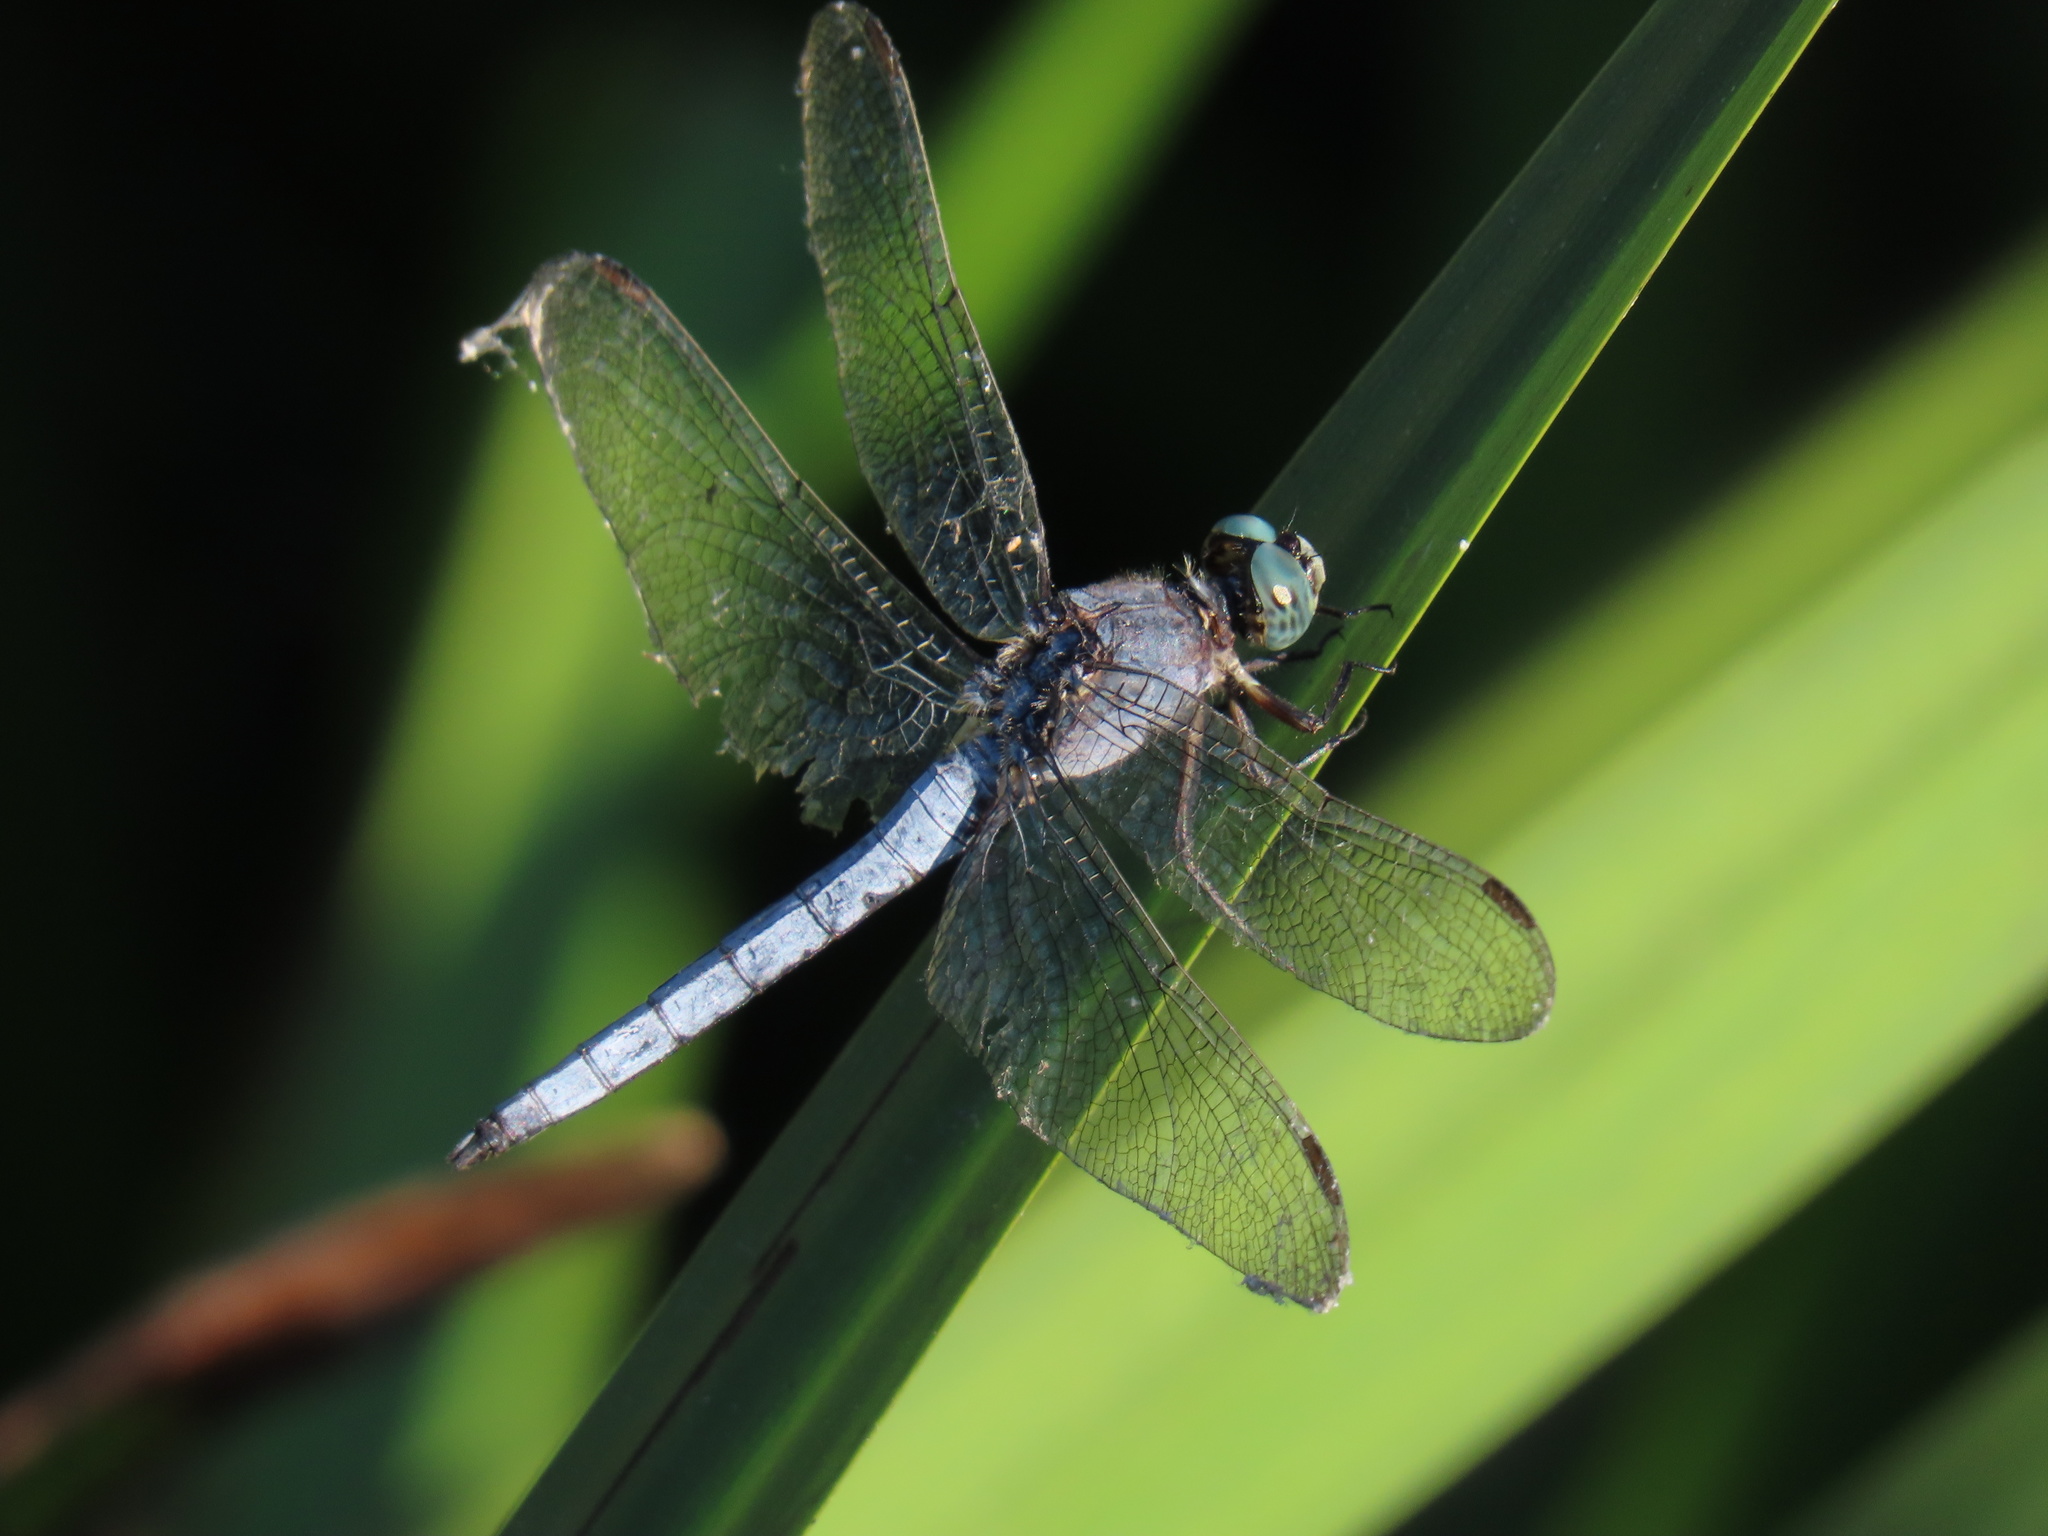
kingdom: Animalia
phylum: Arthropoda
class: Insecta
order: Odonata
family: Libellulidae
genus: Orthetrum
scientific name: Orthetrum coerulescens
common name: Keeled skimmer
